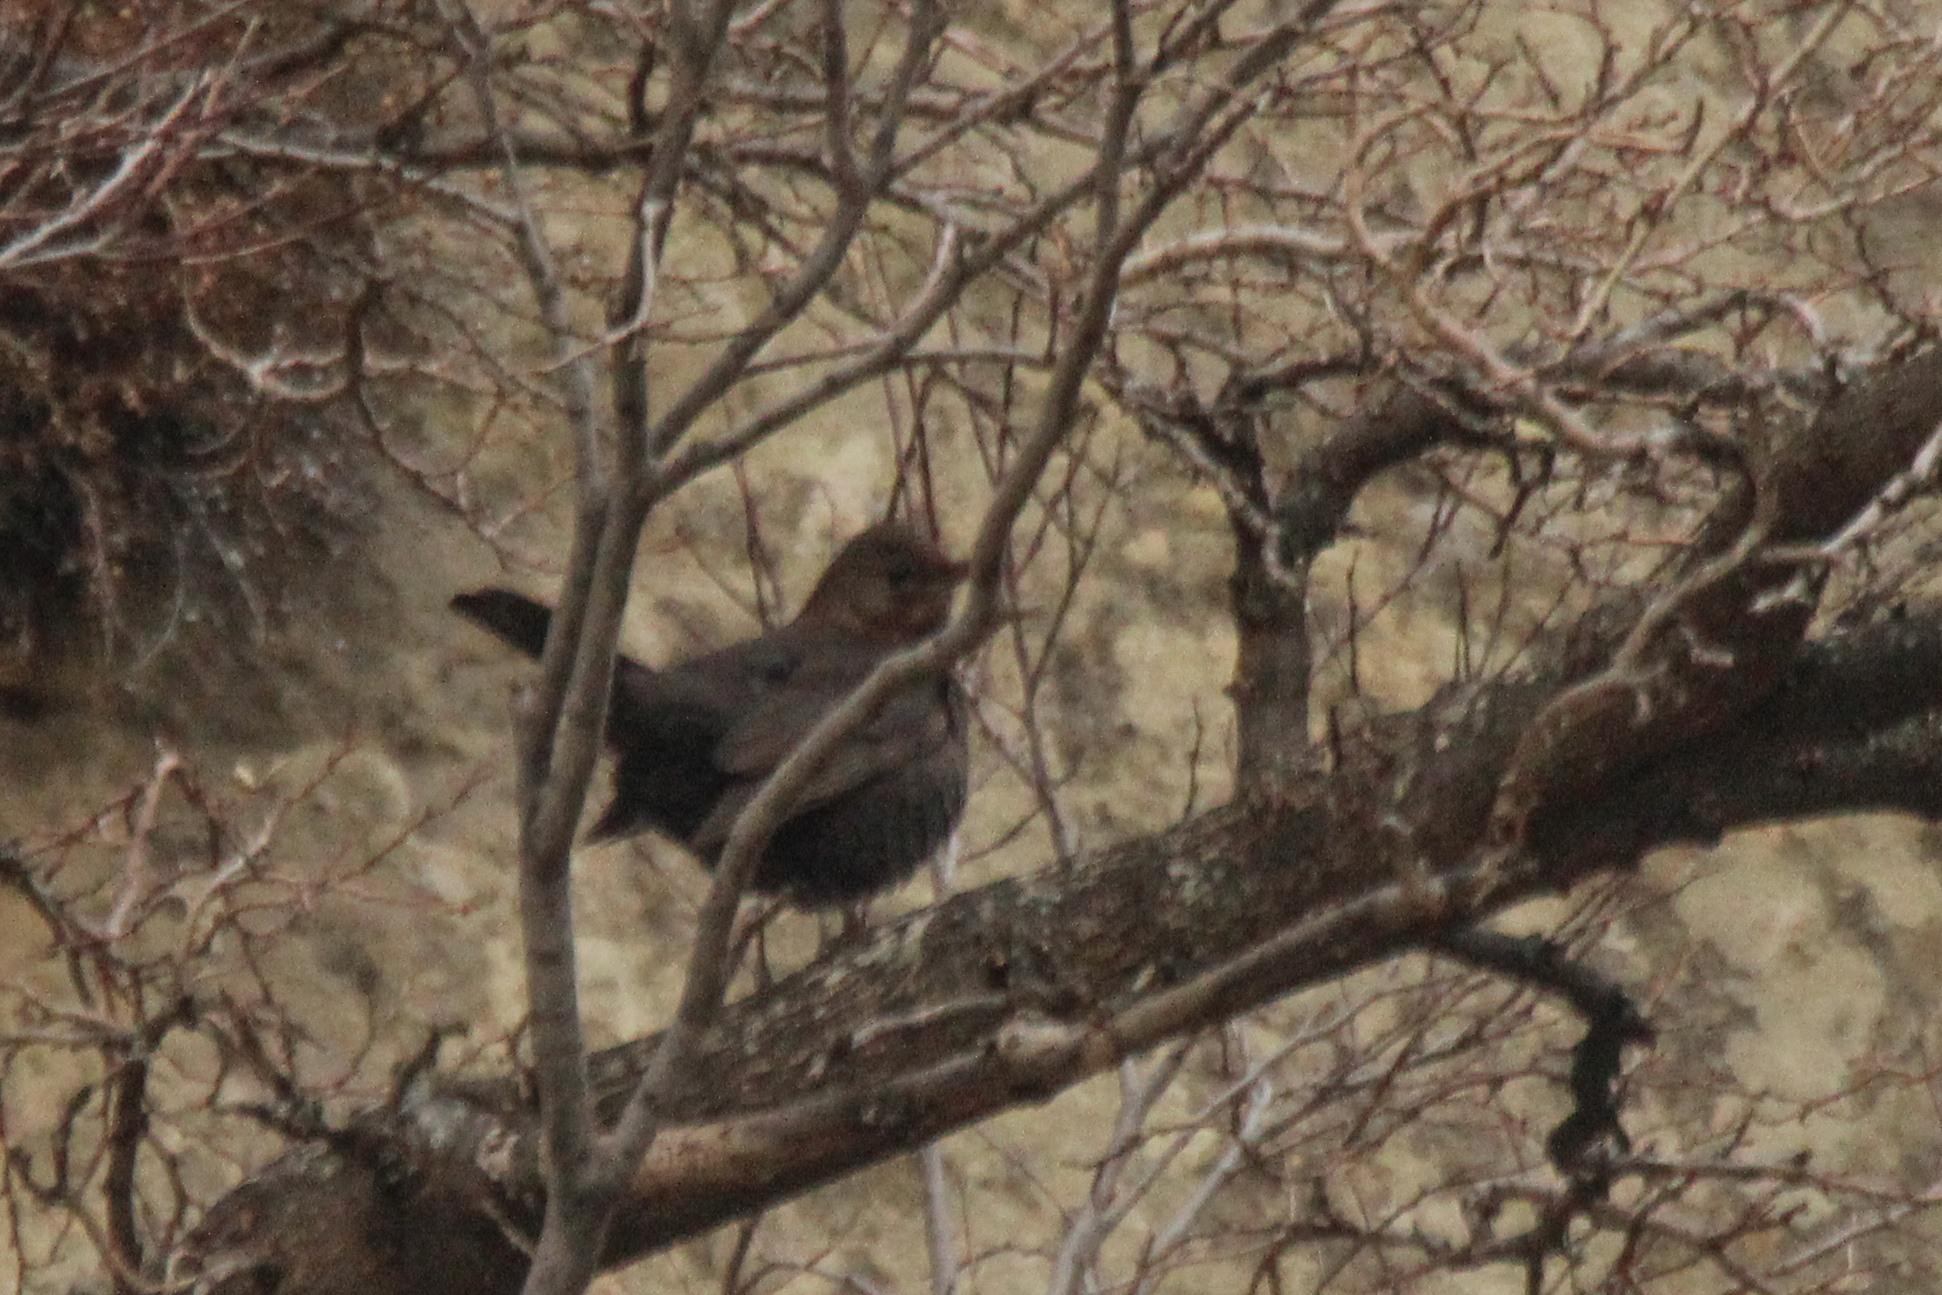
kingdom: Animalia
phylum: Chordata
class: Aves
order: Passeriformes
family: Turdidae
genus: Turdus
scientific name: Turdus merula
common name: Common blackbird
